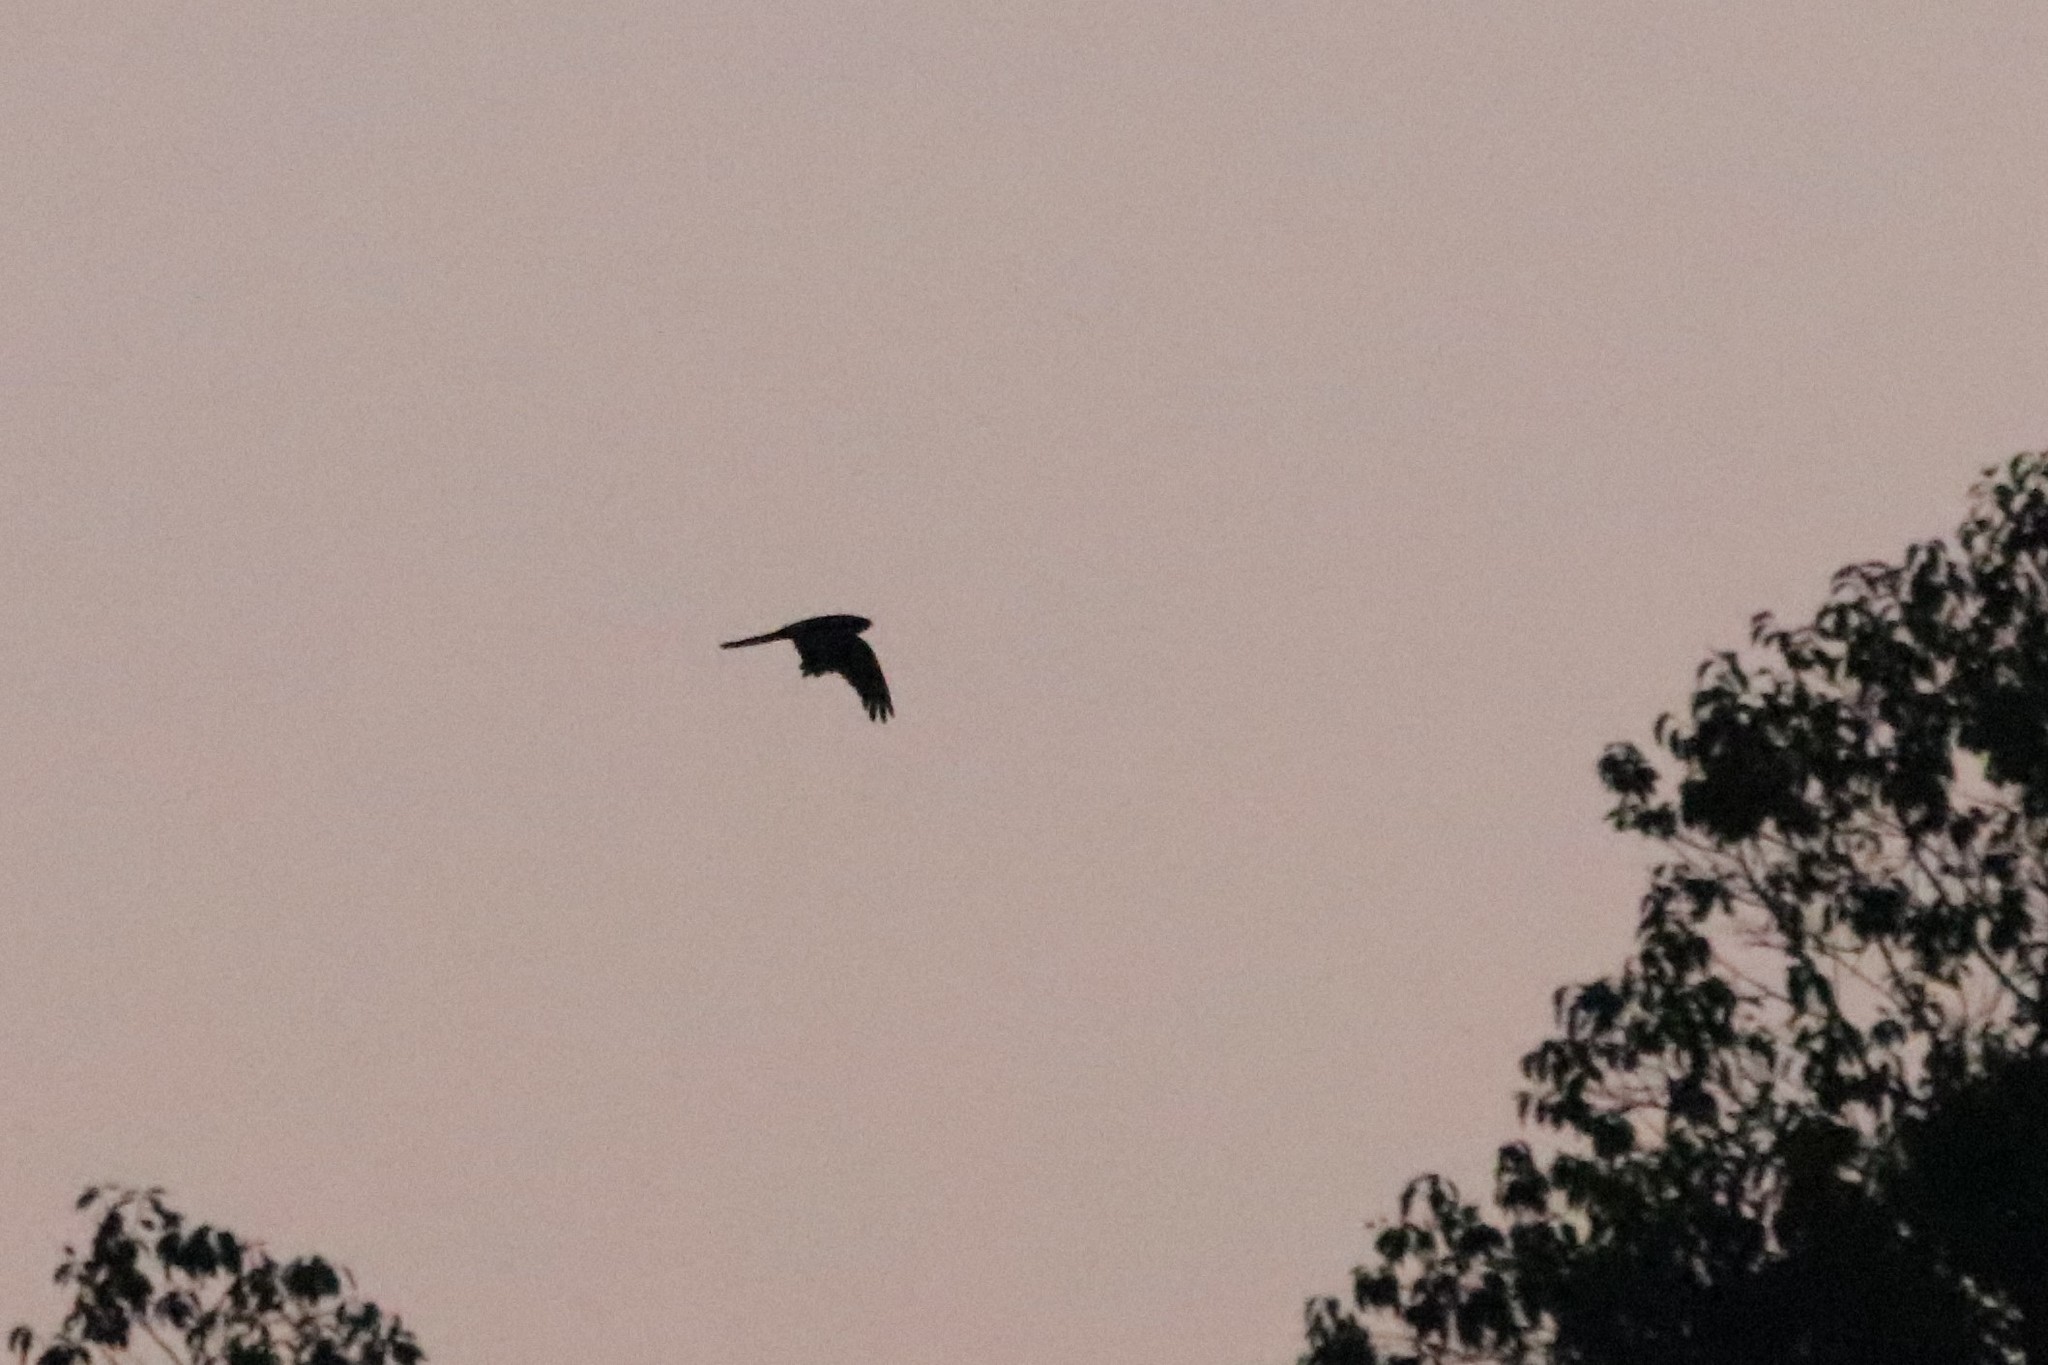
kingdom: Animalia
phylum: Chordata
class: Aves
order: Caprimulgiformes
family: Caprimulgidae
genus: Lyncornis
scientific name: Lyncornis macrotis
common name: Great eared-nightjar
